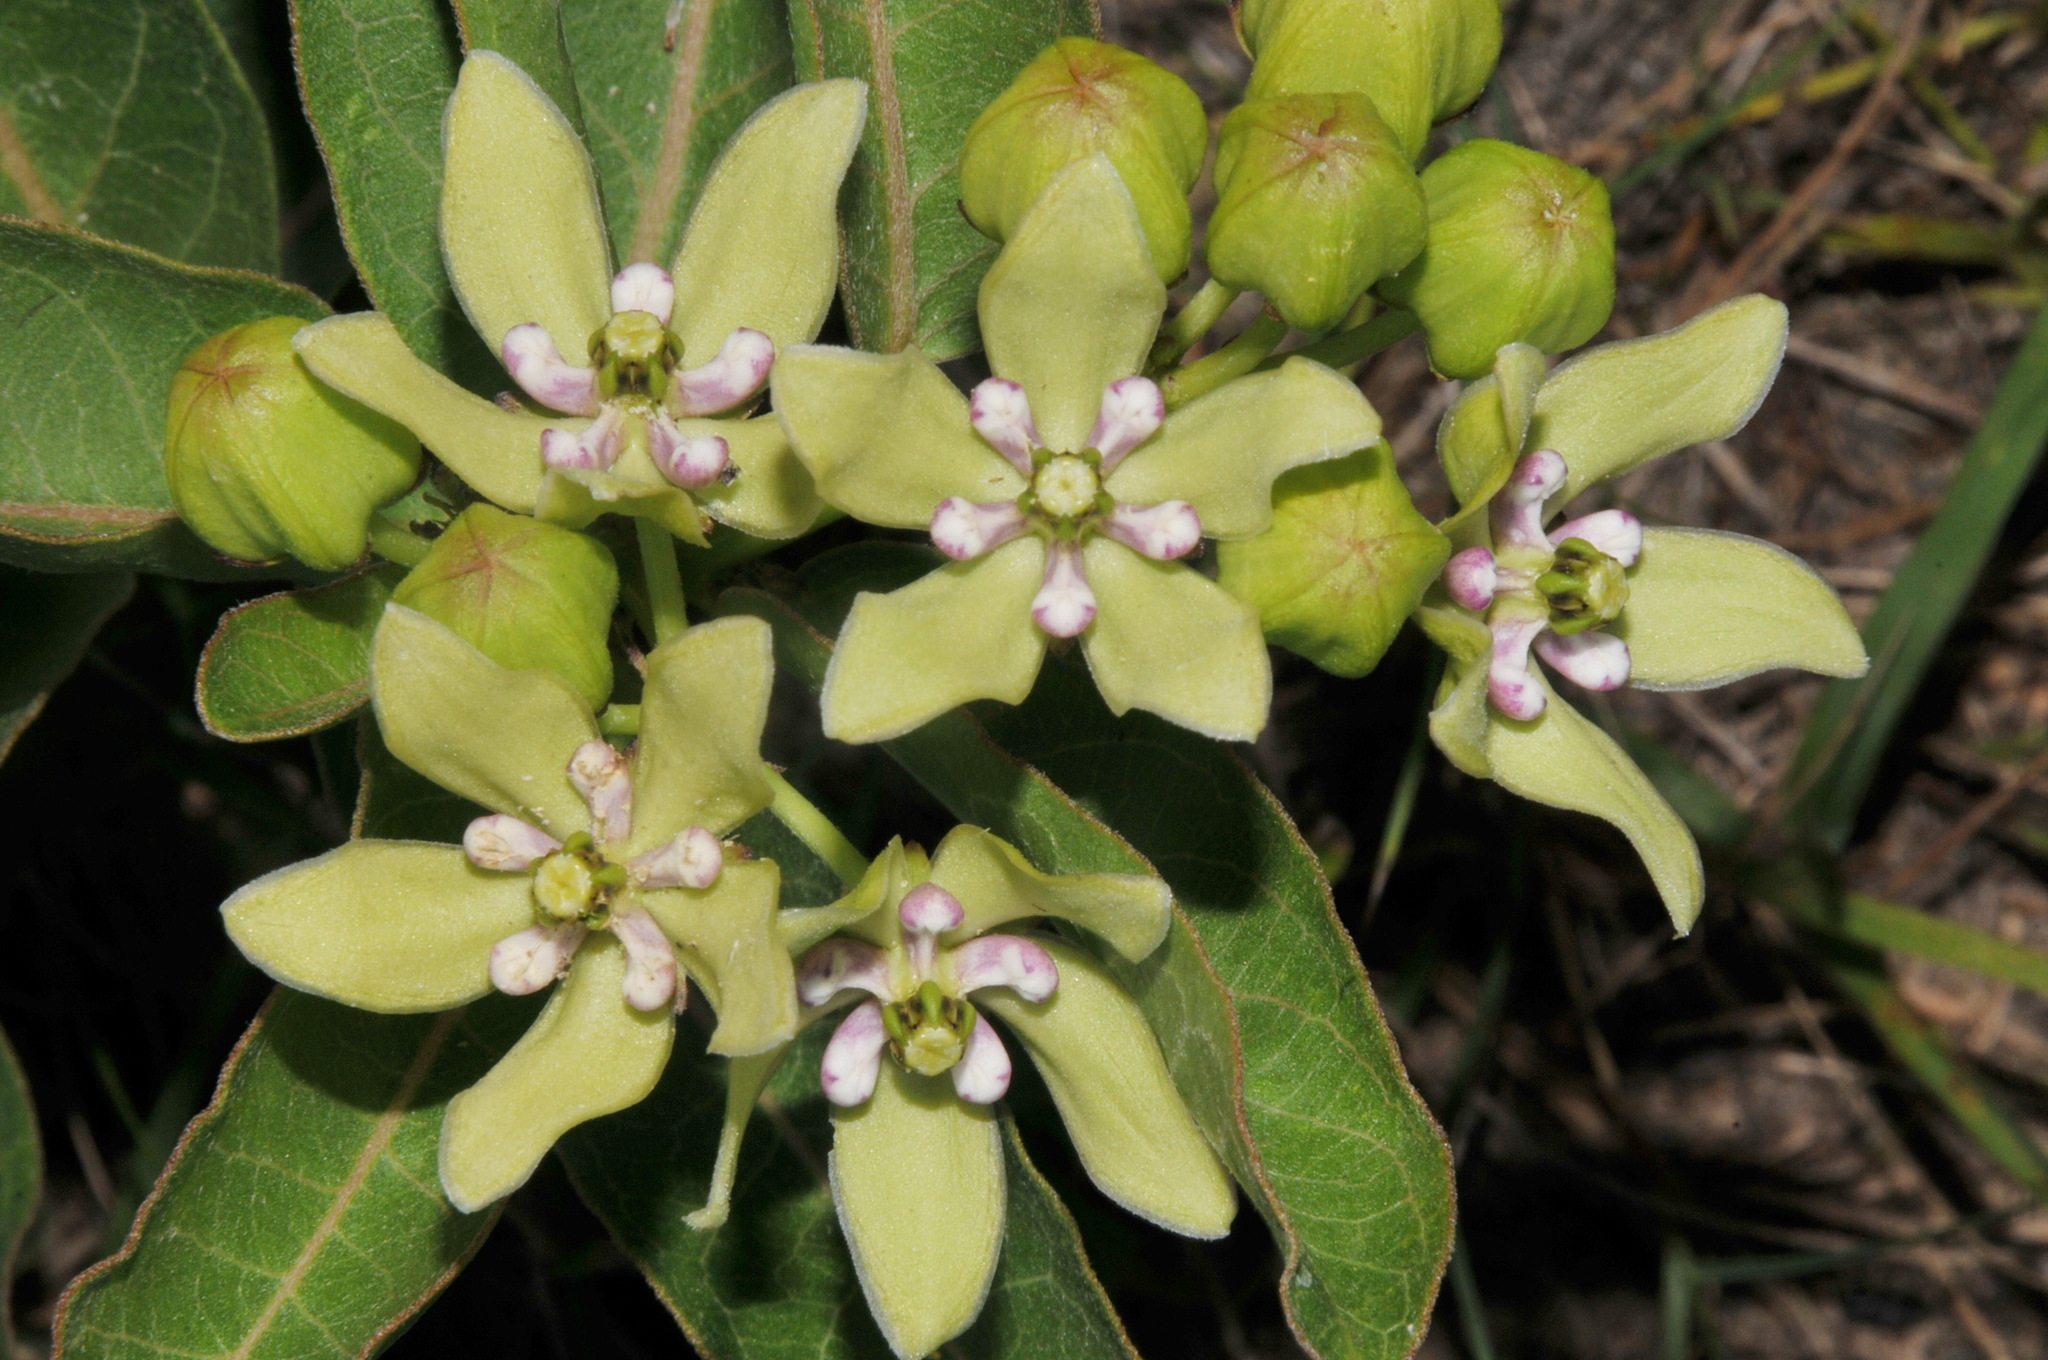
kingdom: Plantae
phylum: Tracheophyta
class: Magnoliopsida
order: Gentianales
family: Apocynaceae
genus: Asclepias
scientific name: Asclepias viridis
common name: Antelope-horns
